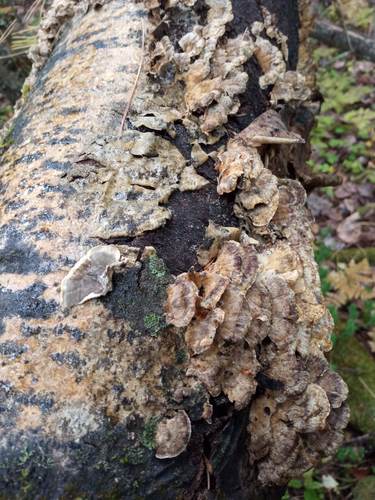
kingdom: Fungi
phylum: Basidiomycota
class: Agaricomycetes
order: Polyporales
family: Phanerochaetaceae
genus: Bjerkandera
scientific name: Bjerkandera adusta
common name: Smoky bracket
